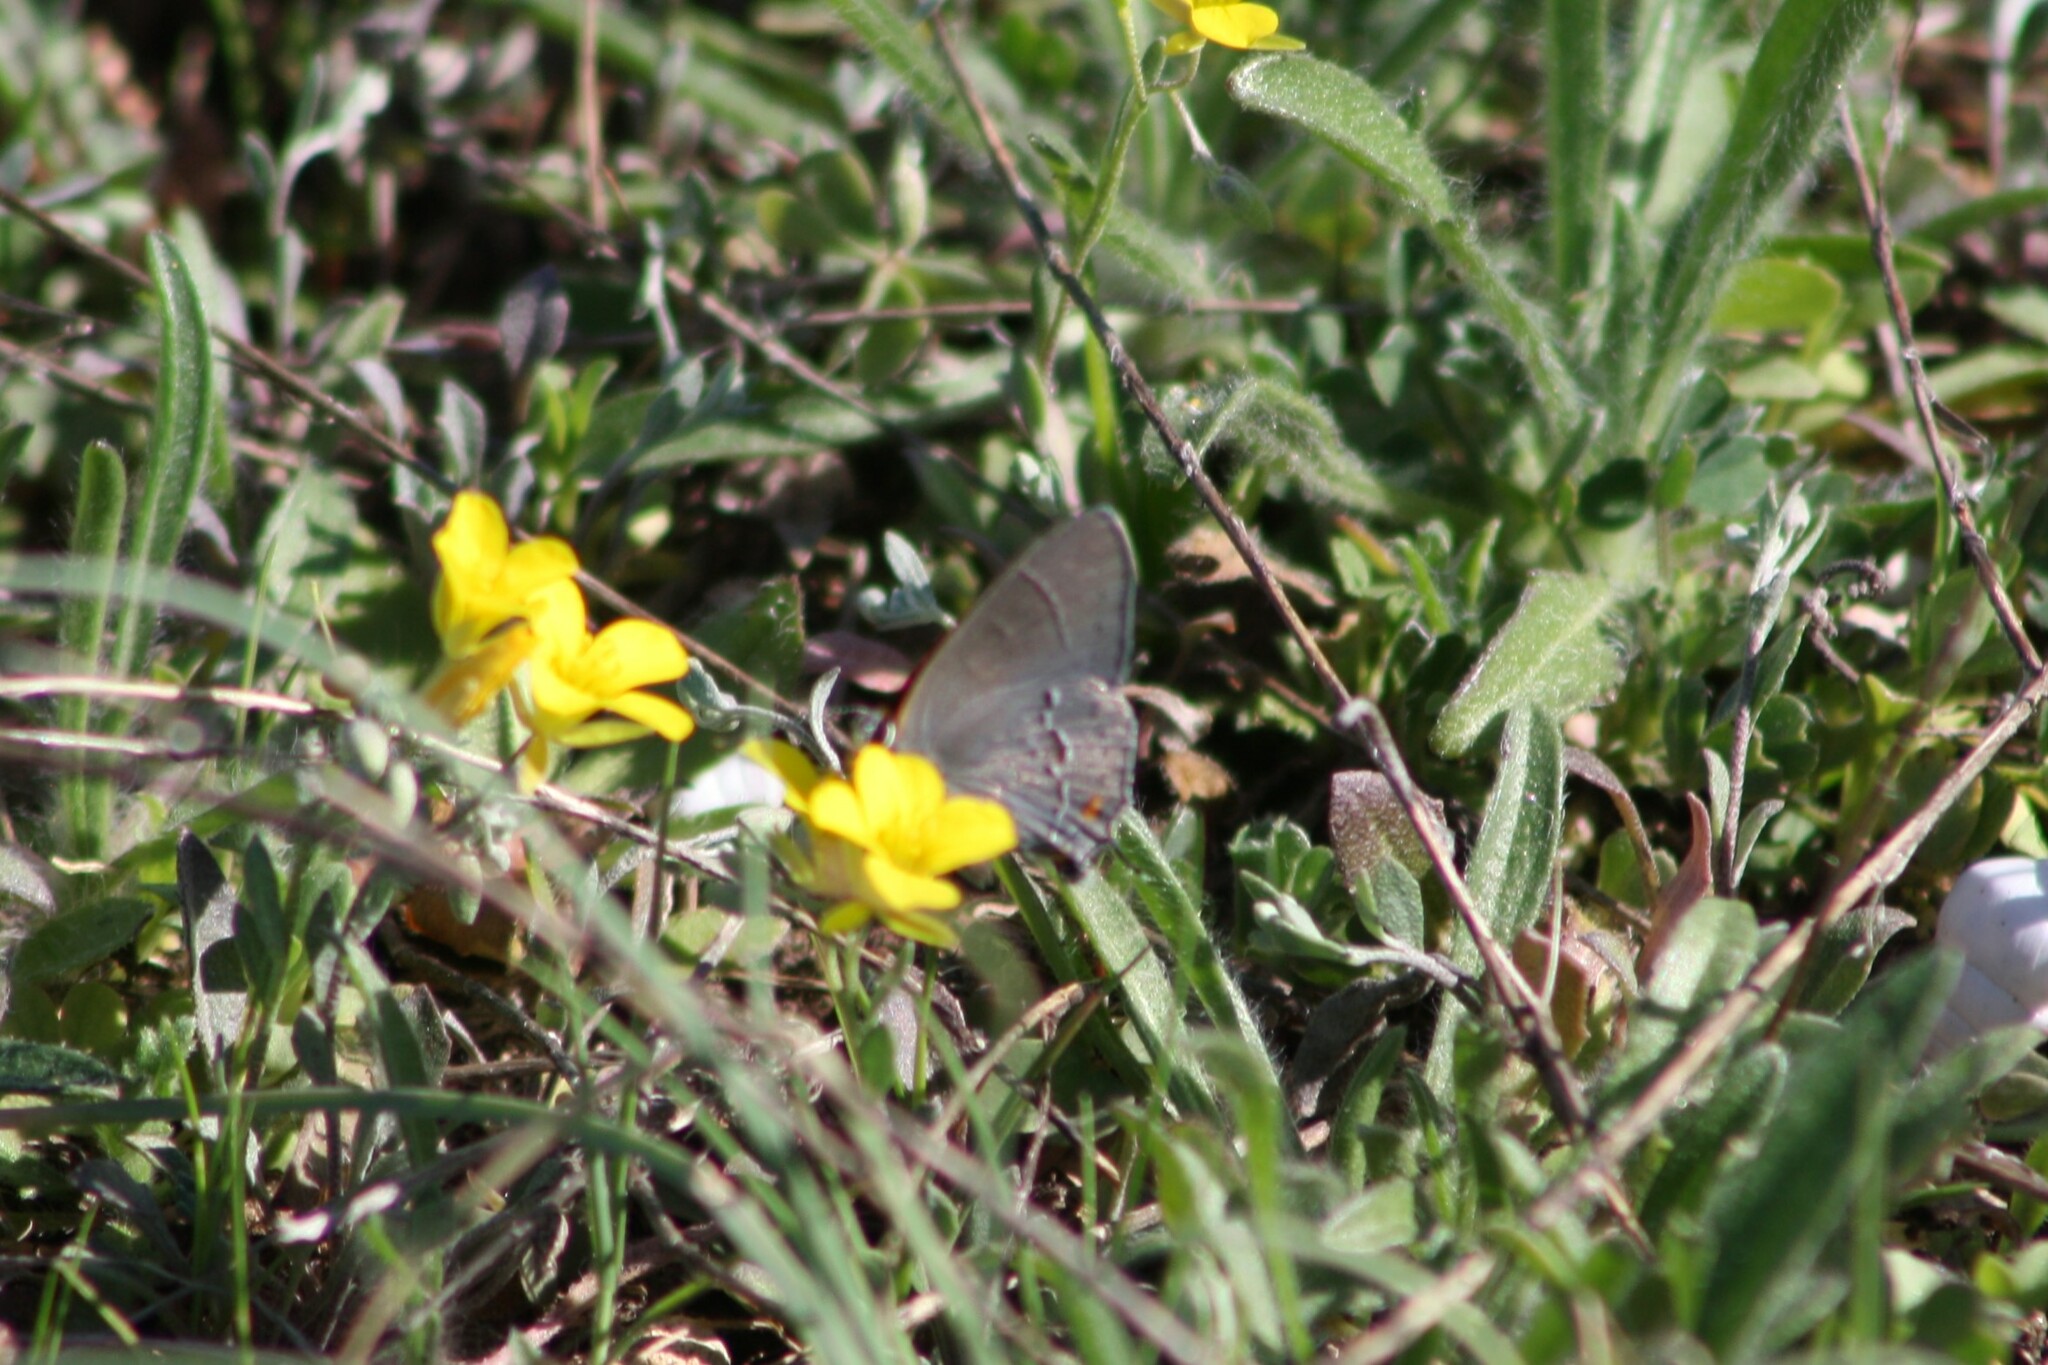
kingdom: Animalia
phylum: Arthropoda
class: Insecta
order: Lepidoptera
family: Lycaenidae
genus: Strymon
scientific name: Strymon melinus
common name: Gray hairstreak
